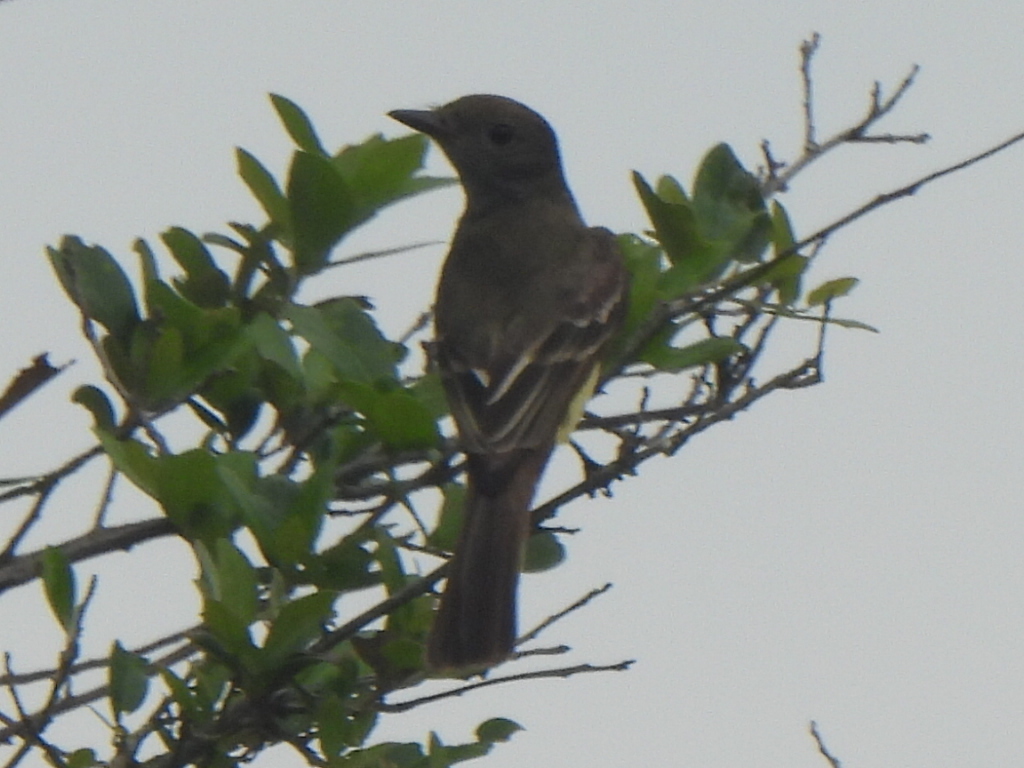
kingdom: Animalia
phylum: Chordata
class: Aves
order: Passeriformes
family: Tyrannidae
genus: Myiarchus
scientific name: Myiarchus crinitus
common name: Great crested flycatcher
